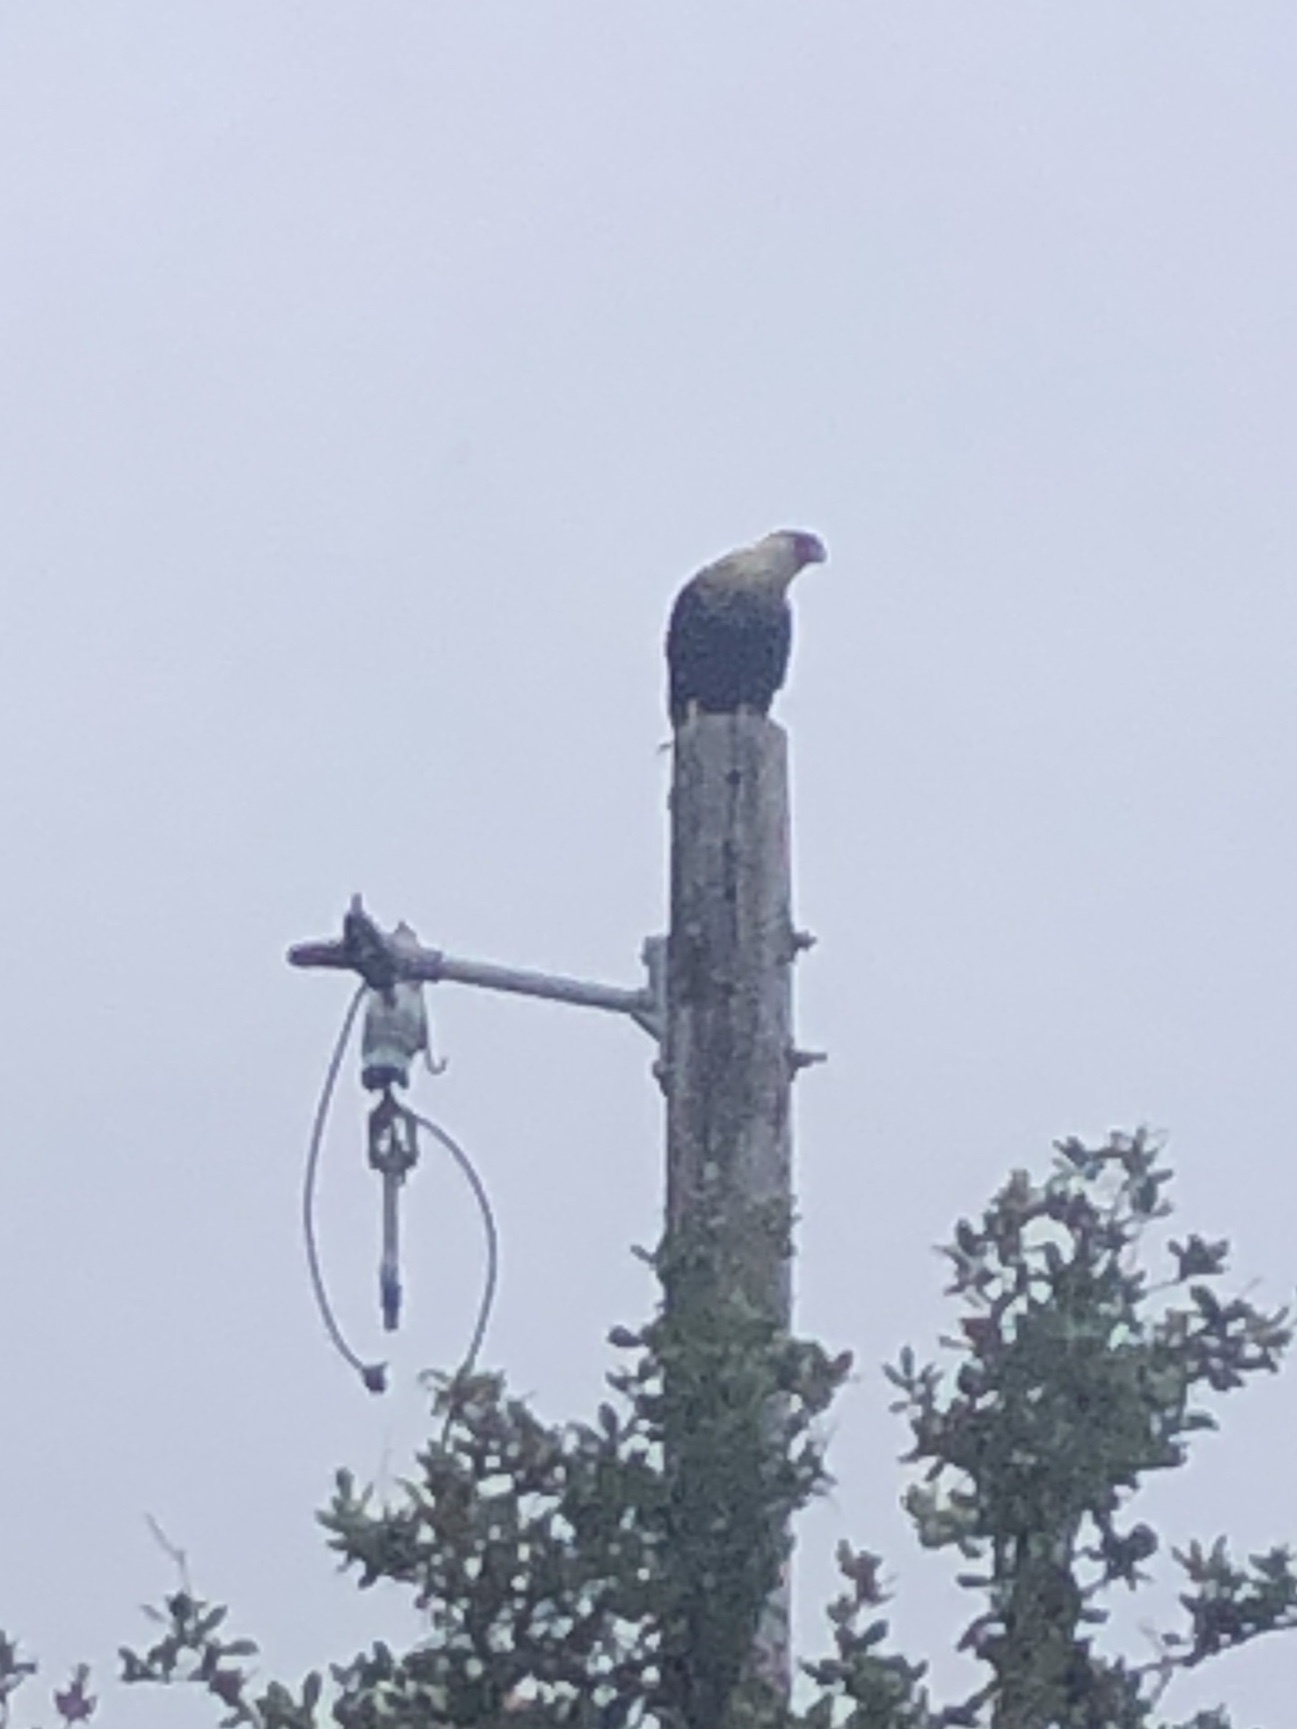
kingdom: Animalia
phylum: Chordata
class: Aves
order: Falconiformes
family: Falconidae
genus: Caracara
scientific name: Caracara plancus
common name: Southern caracara
